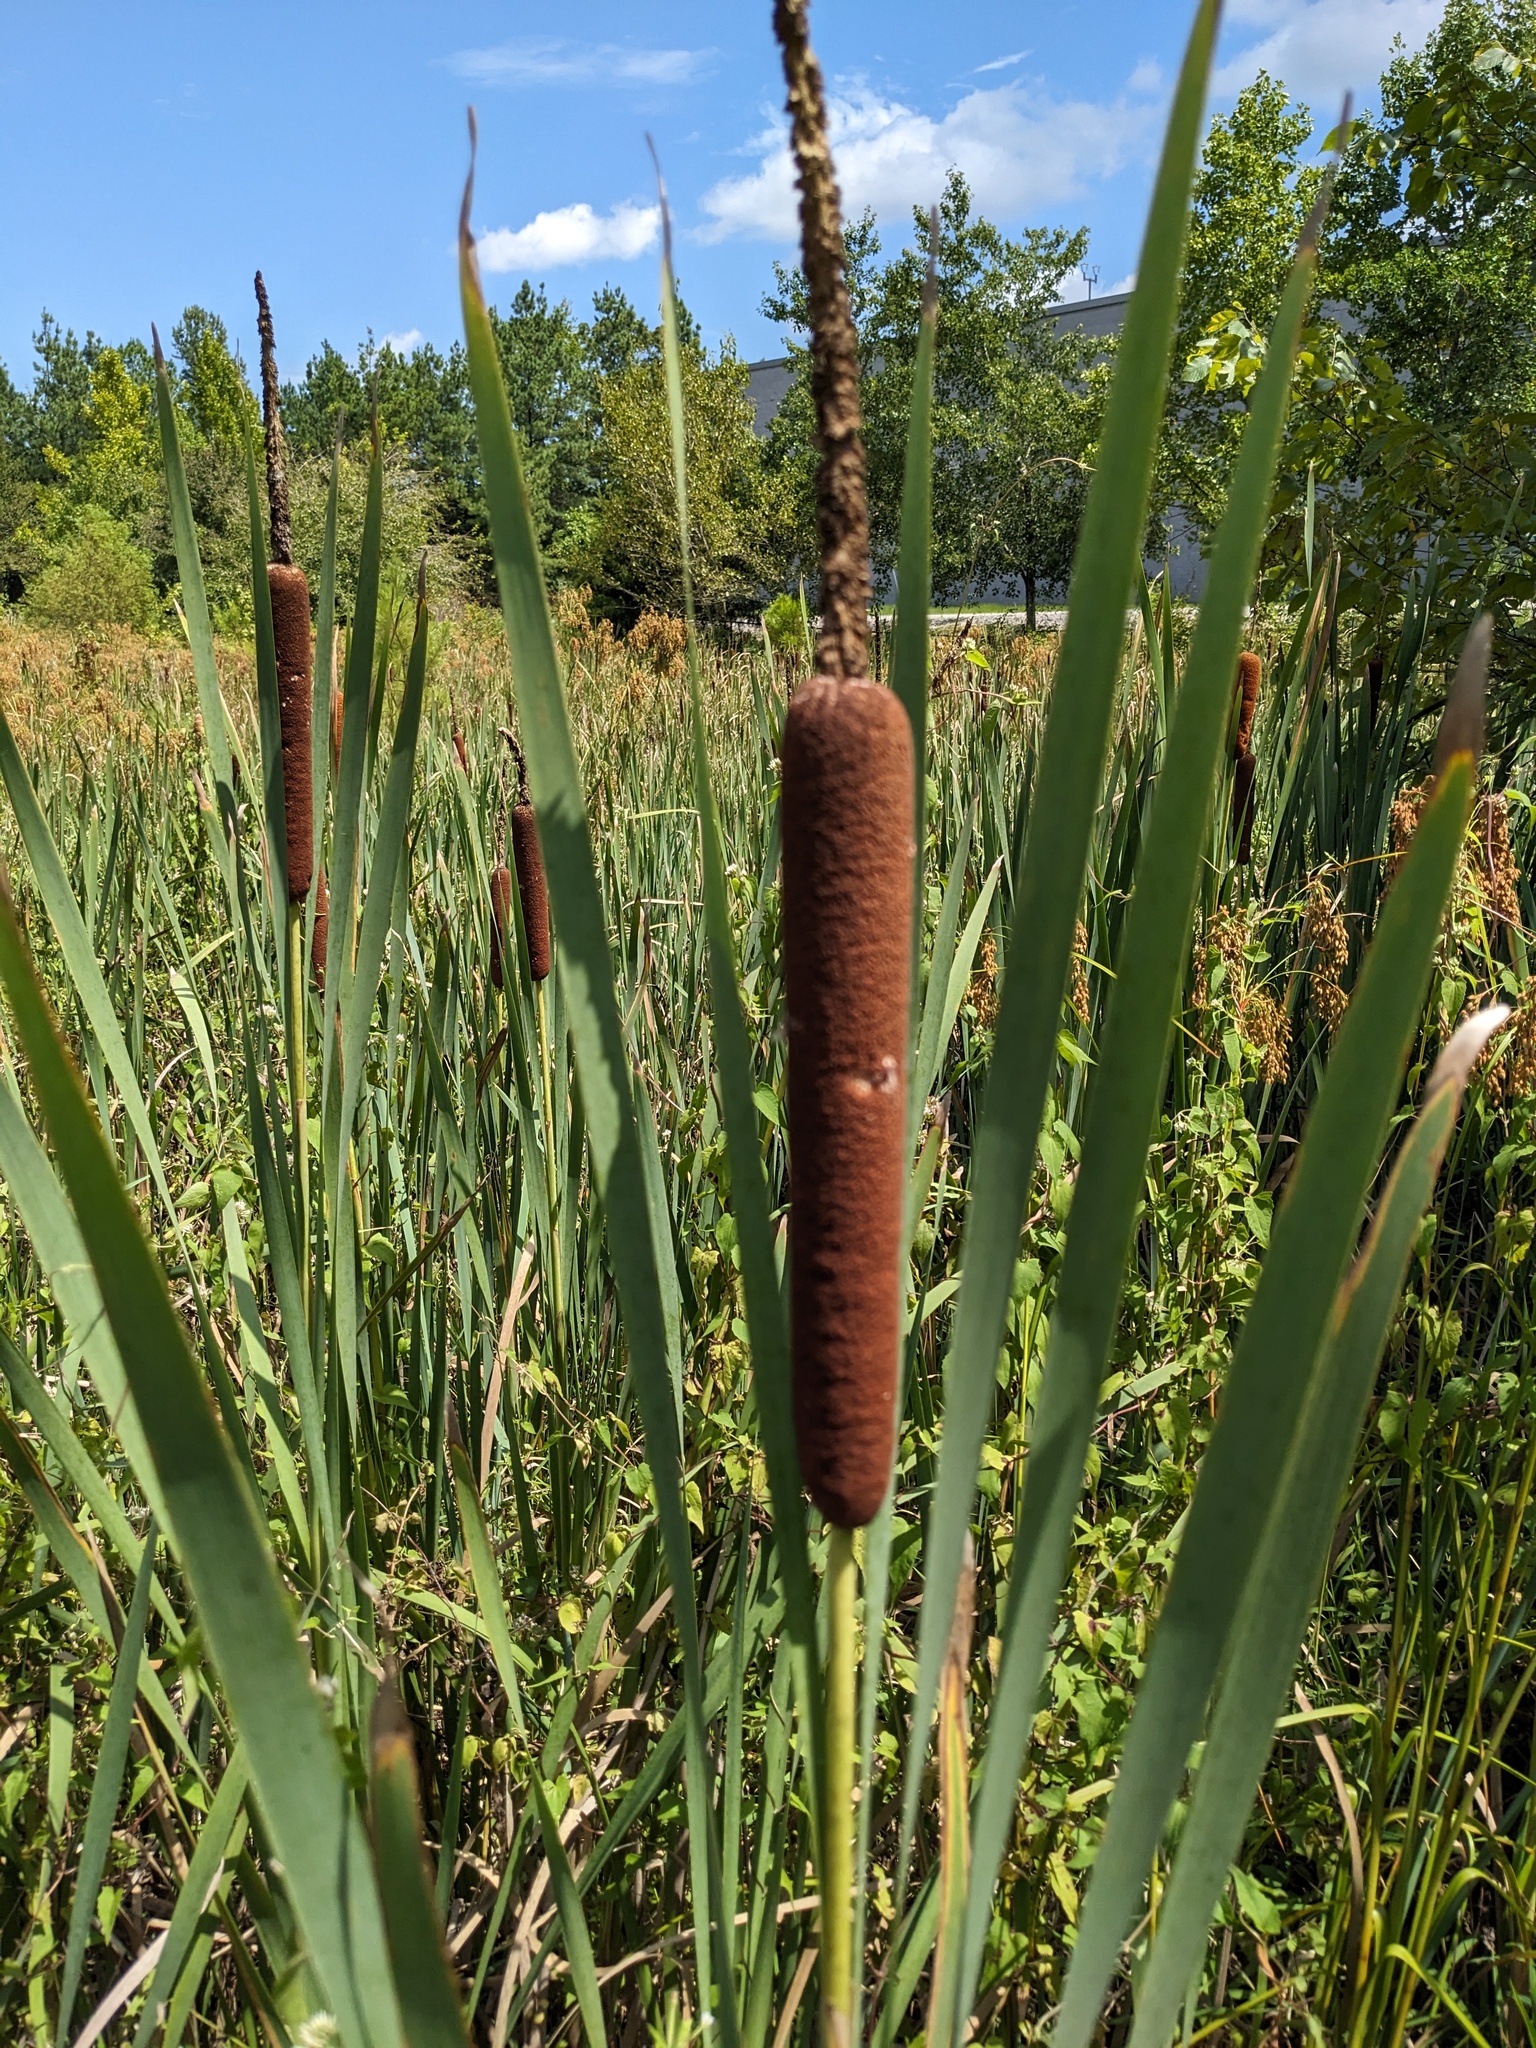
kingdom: Plantae
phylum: Tracheophyta
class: Liliopsida
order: Poales
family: Typhaceae
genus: Typha
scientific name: Typha latifolia
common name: Broadleaf cattail
